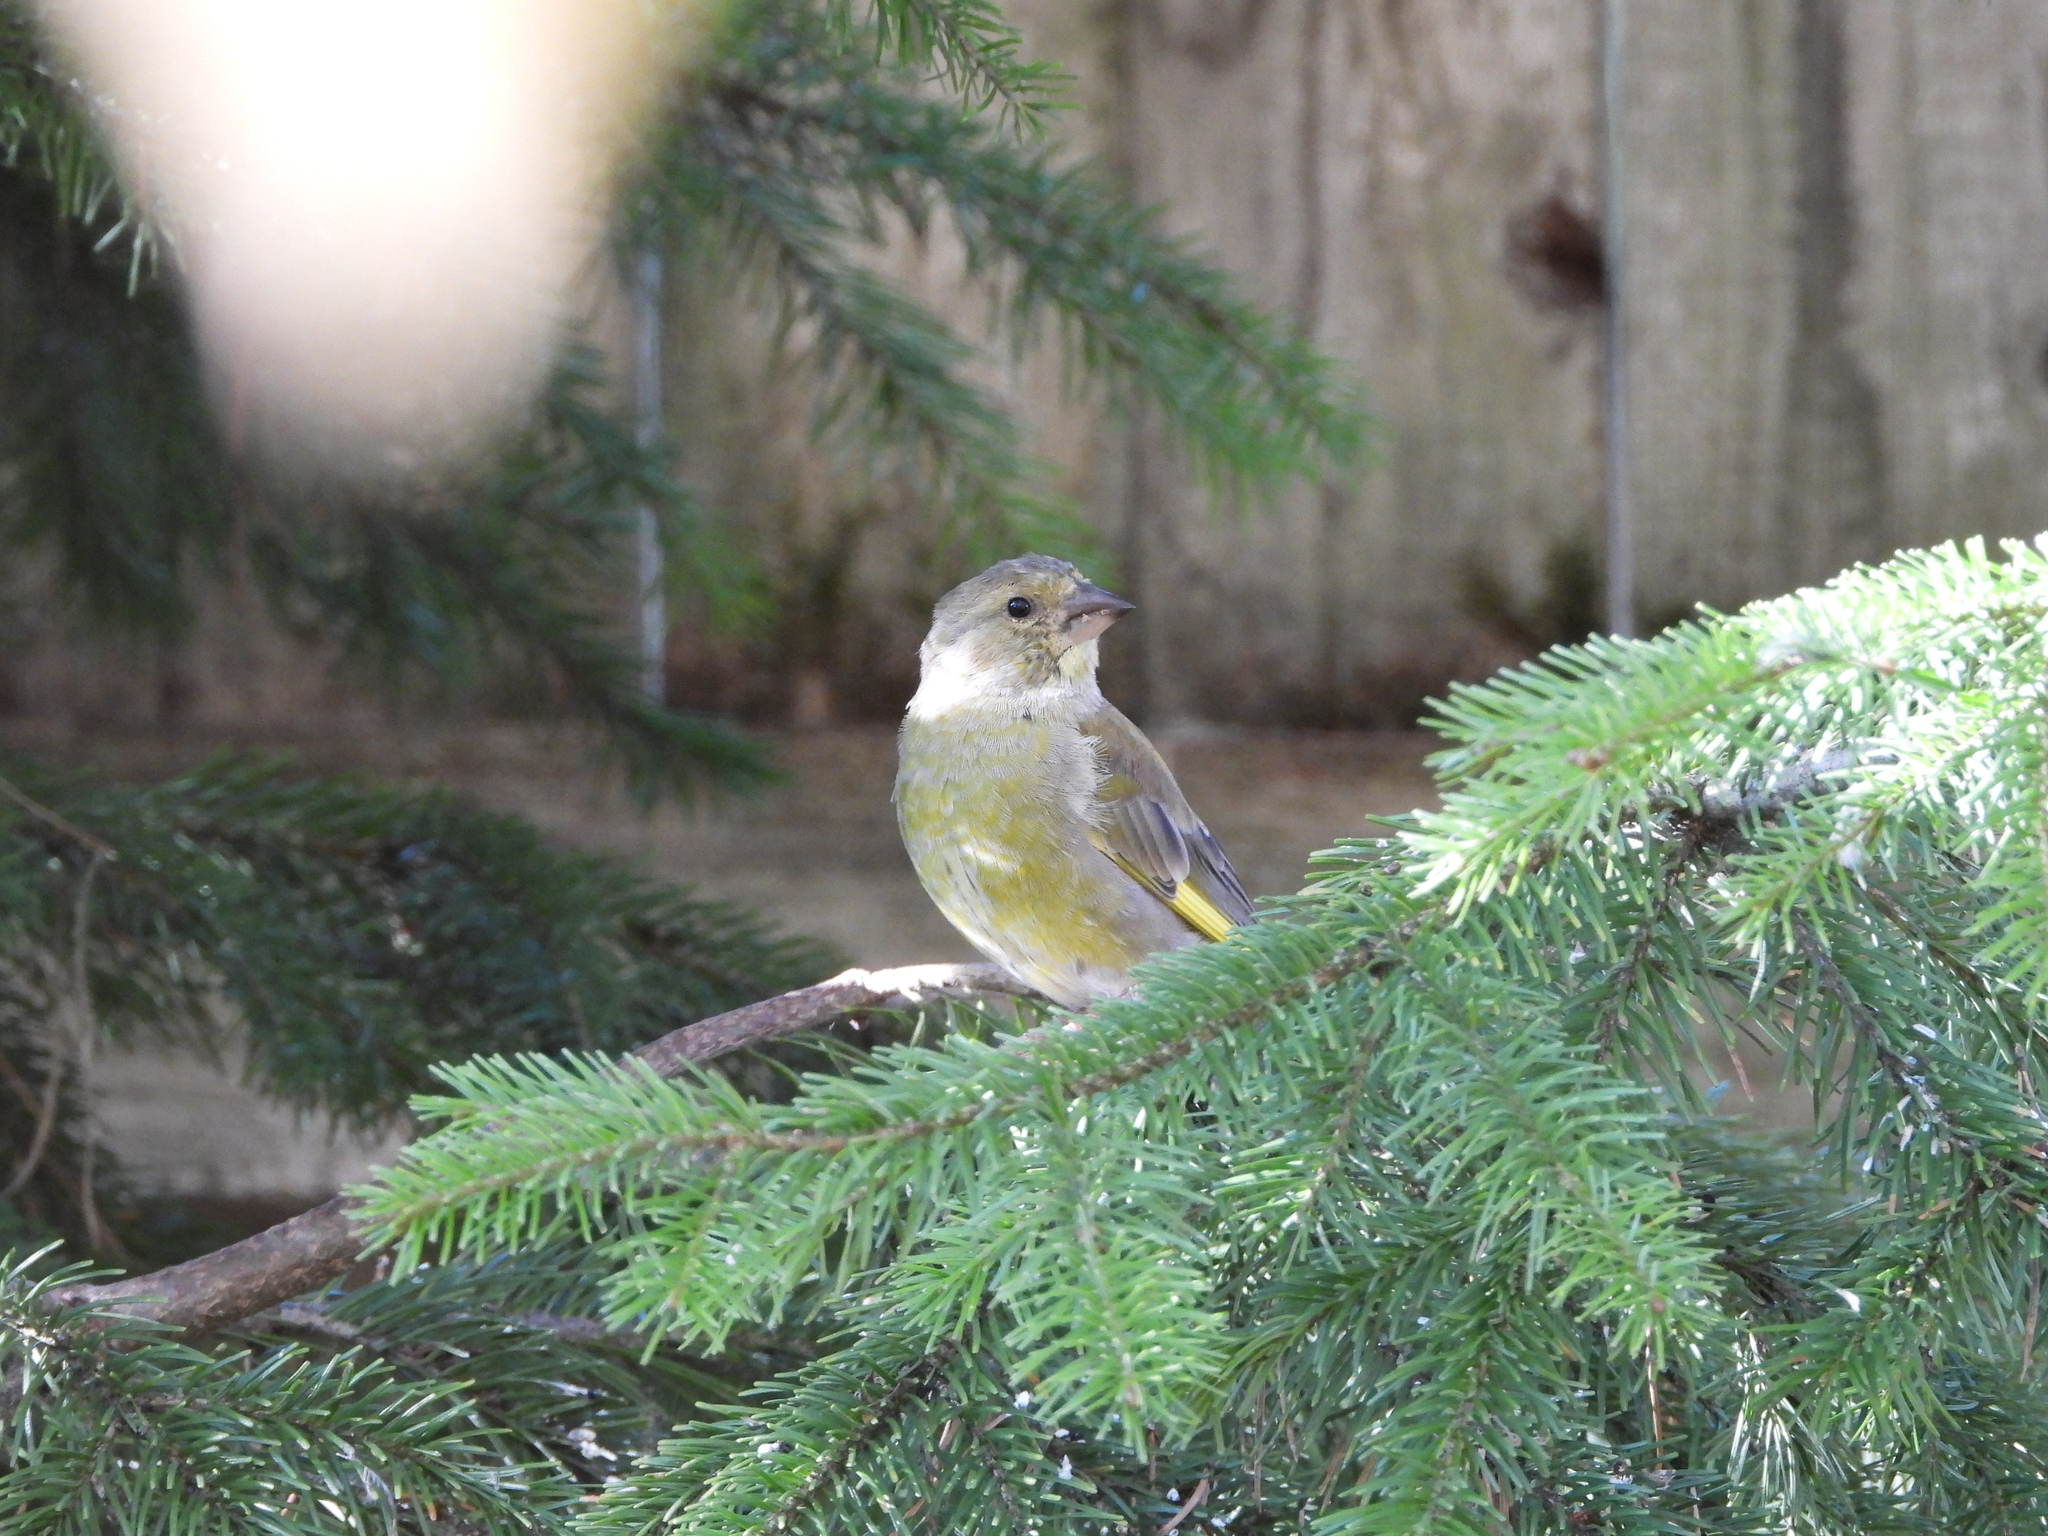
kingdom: Plantae
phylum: Tracheophyta
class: Liliopsida
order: Poales
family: Poaceae
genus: Chloris
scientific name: Chloris chloris
